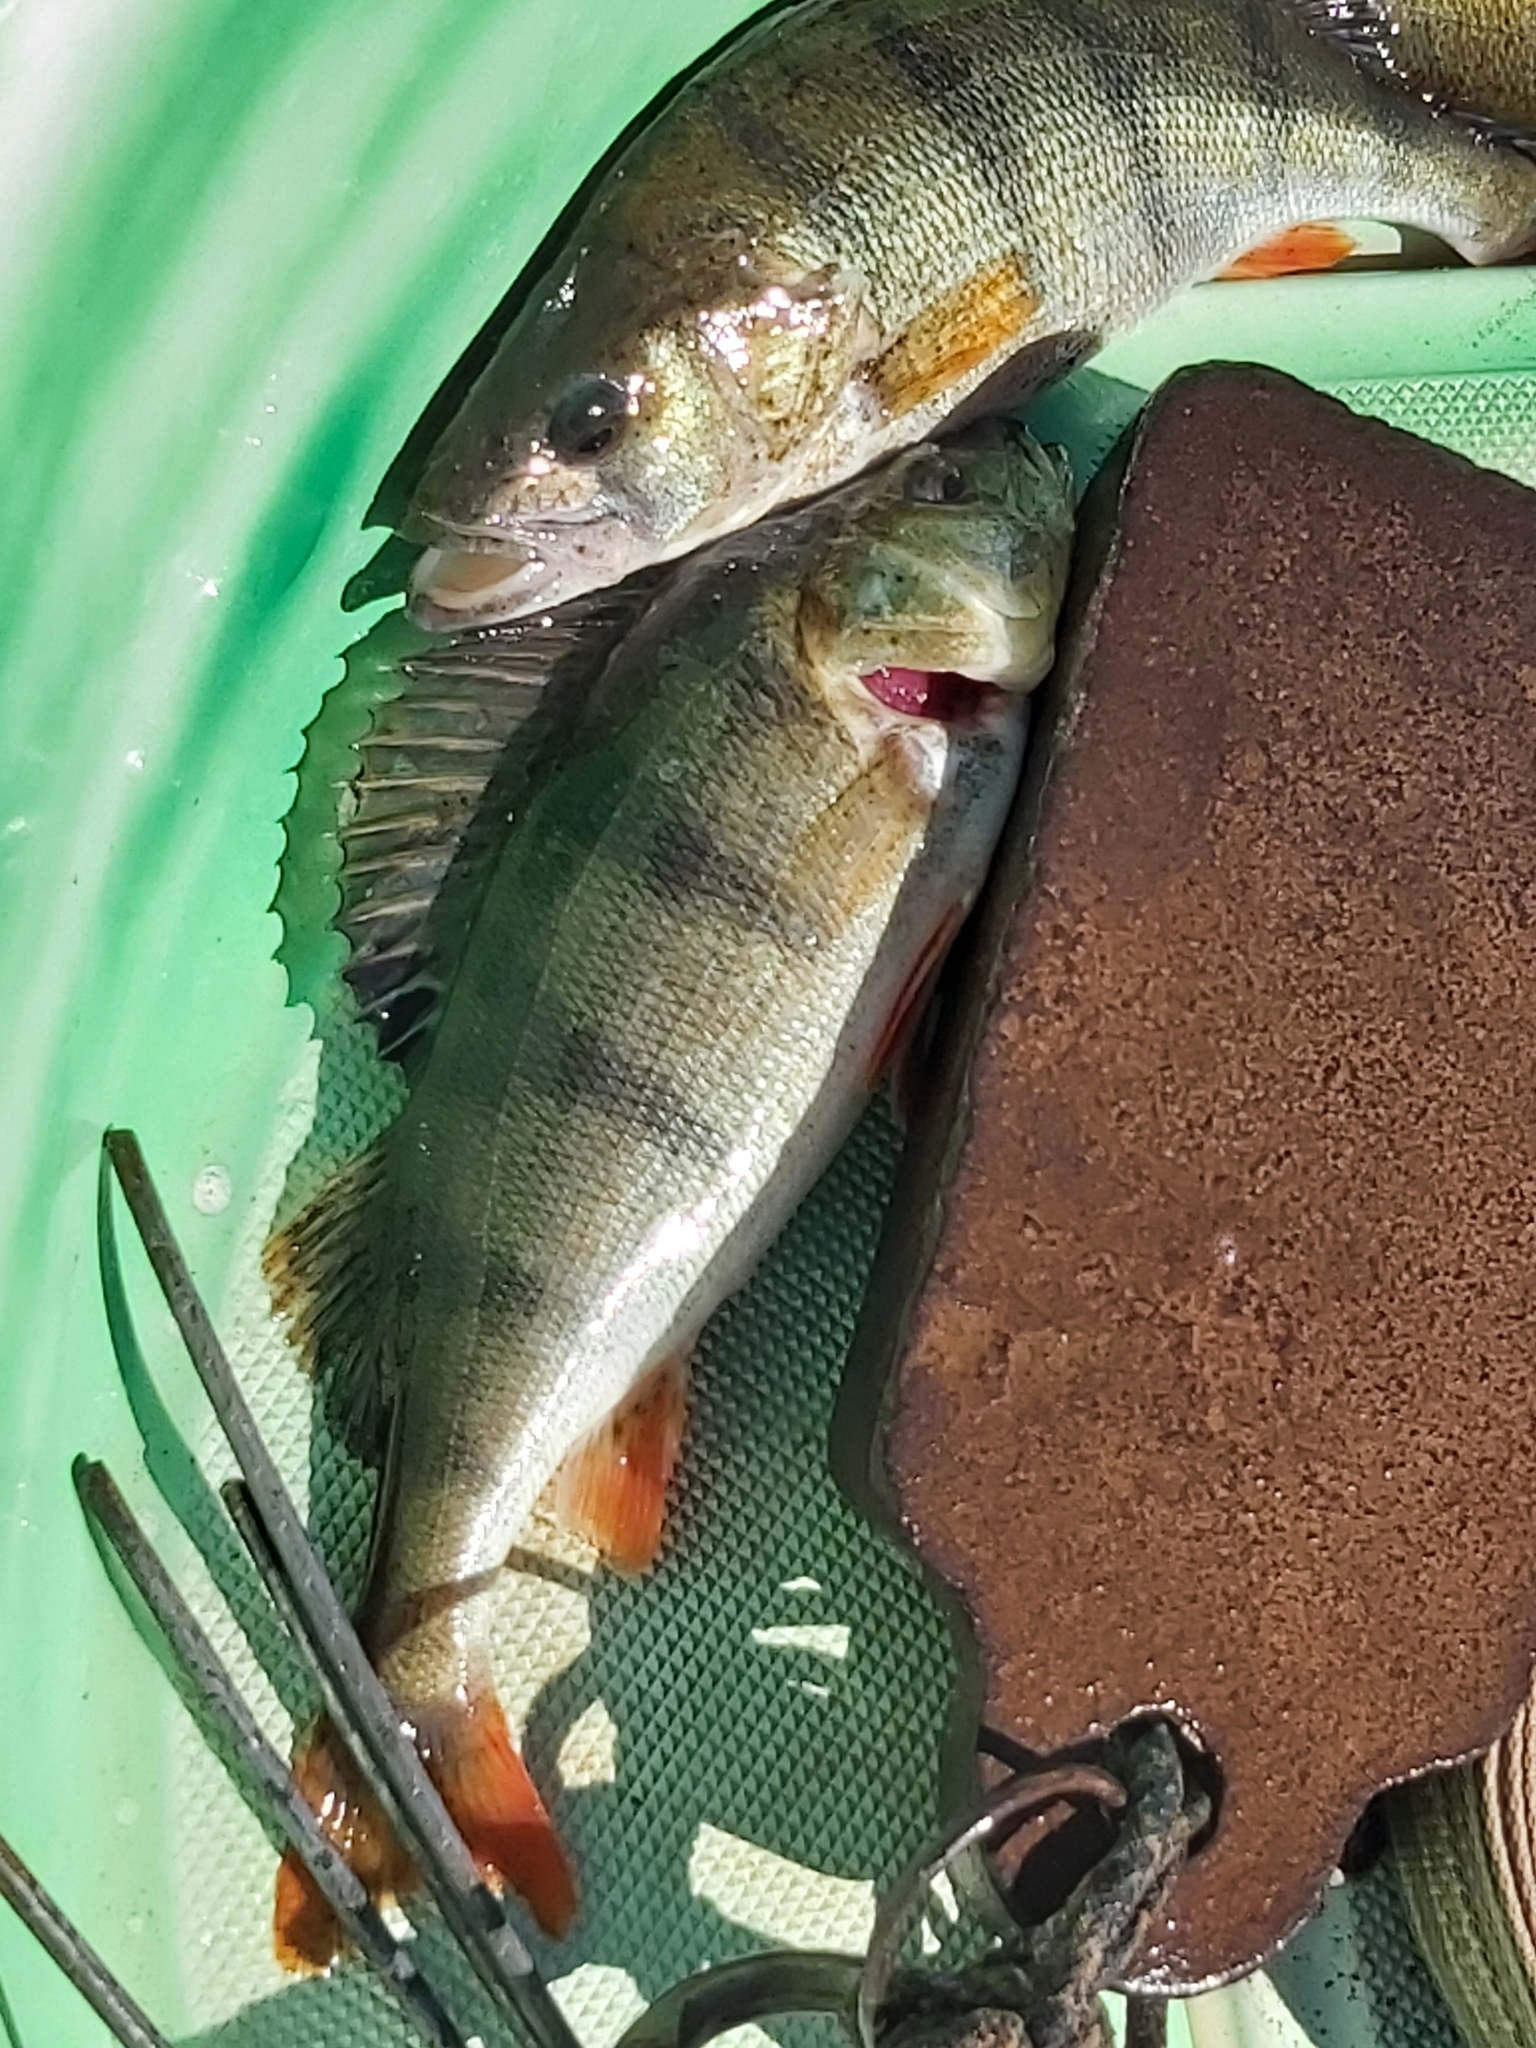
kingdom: Animalia
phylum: Chordata
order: Perciformes
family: Percidae
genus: Perca
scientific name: Perca fluviatilis
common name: Perch
